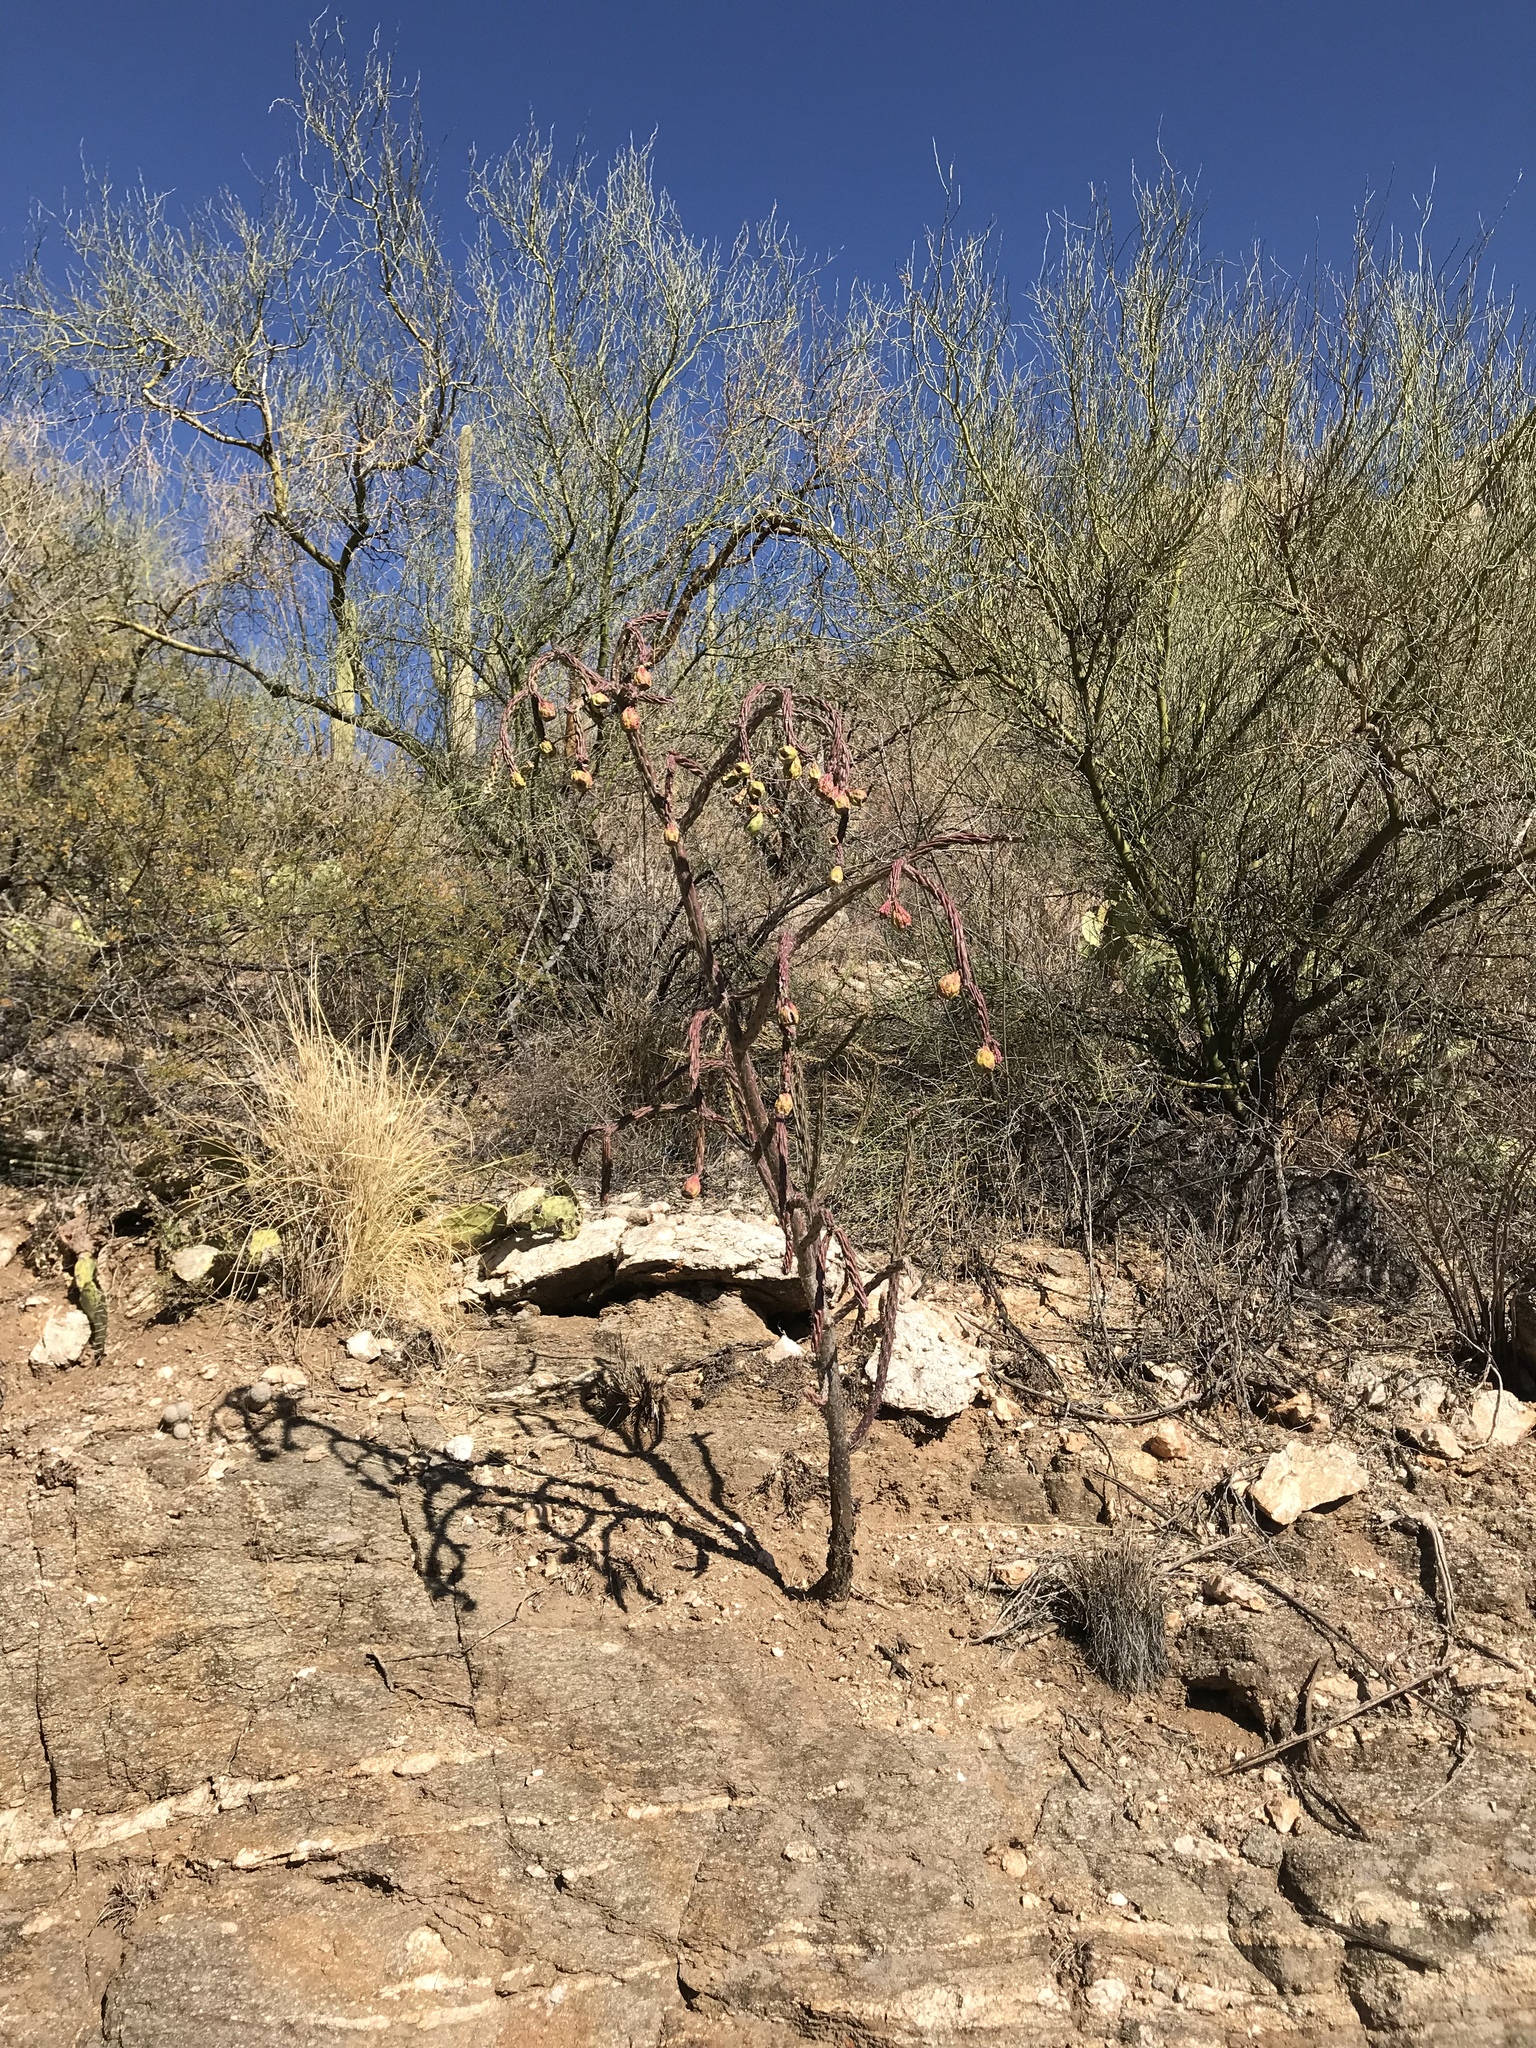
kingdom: Plantae
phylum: Tracheophyta
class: Magnoliopsida
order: Caryophyllales
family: Cactaceae
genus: Cylindropuntia
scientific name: Cylindropuntia thurberi
